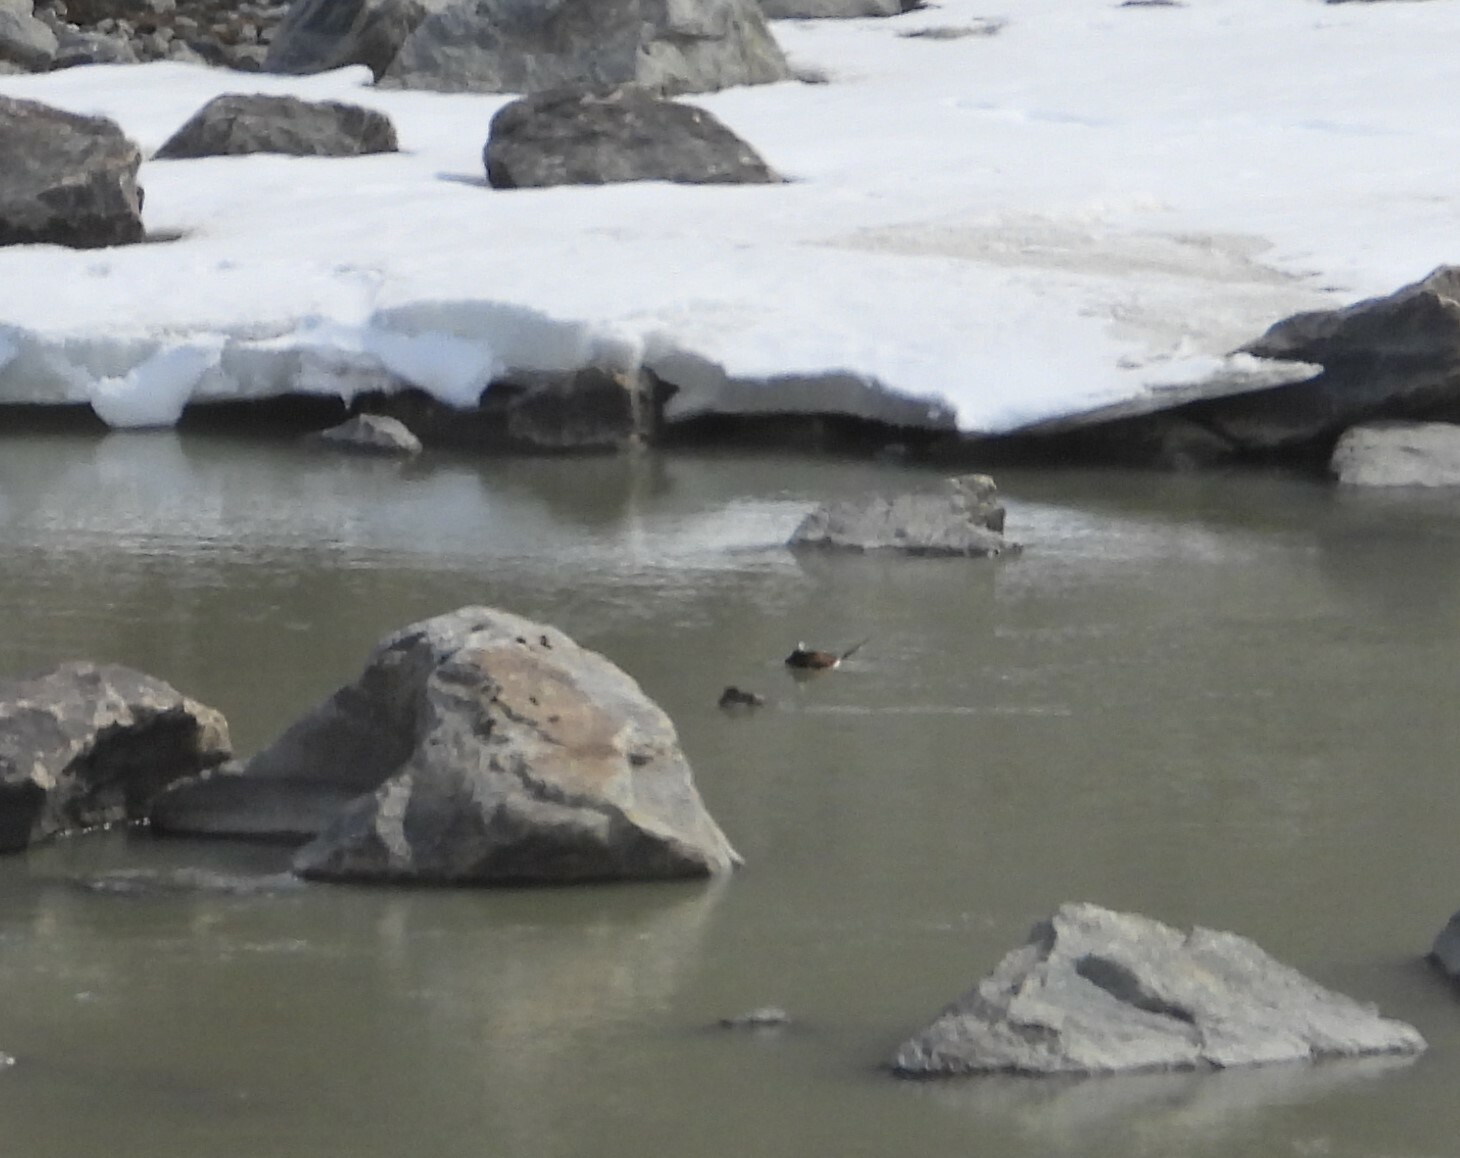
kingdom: Animalia
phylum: Chordata
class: Aves
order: Anseriformes
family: Anatidae
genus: Clangula
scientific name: Clangula hyemalis
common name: Long-tailed duck
